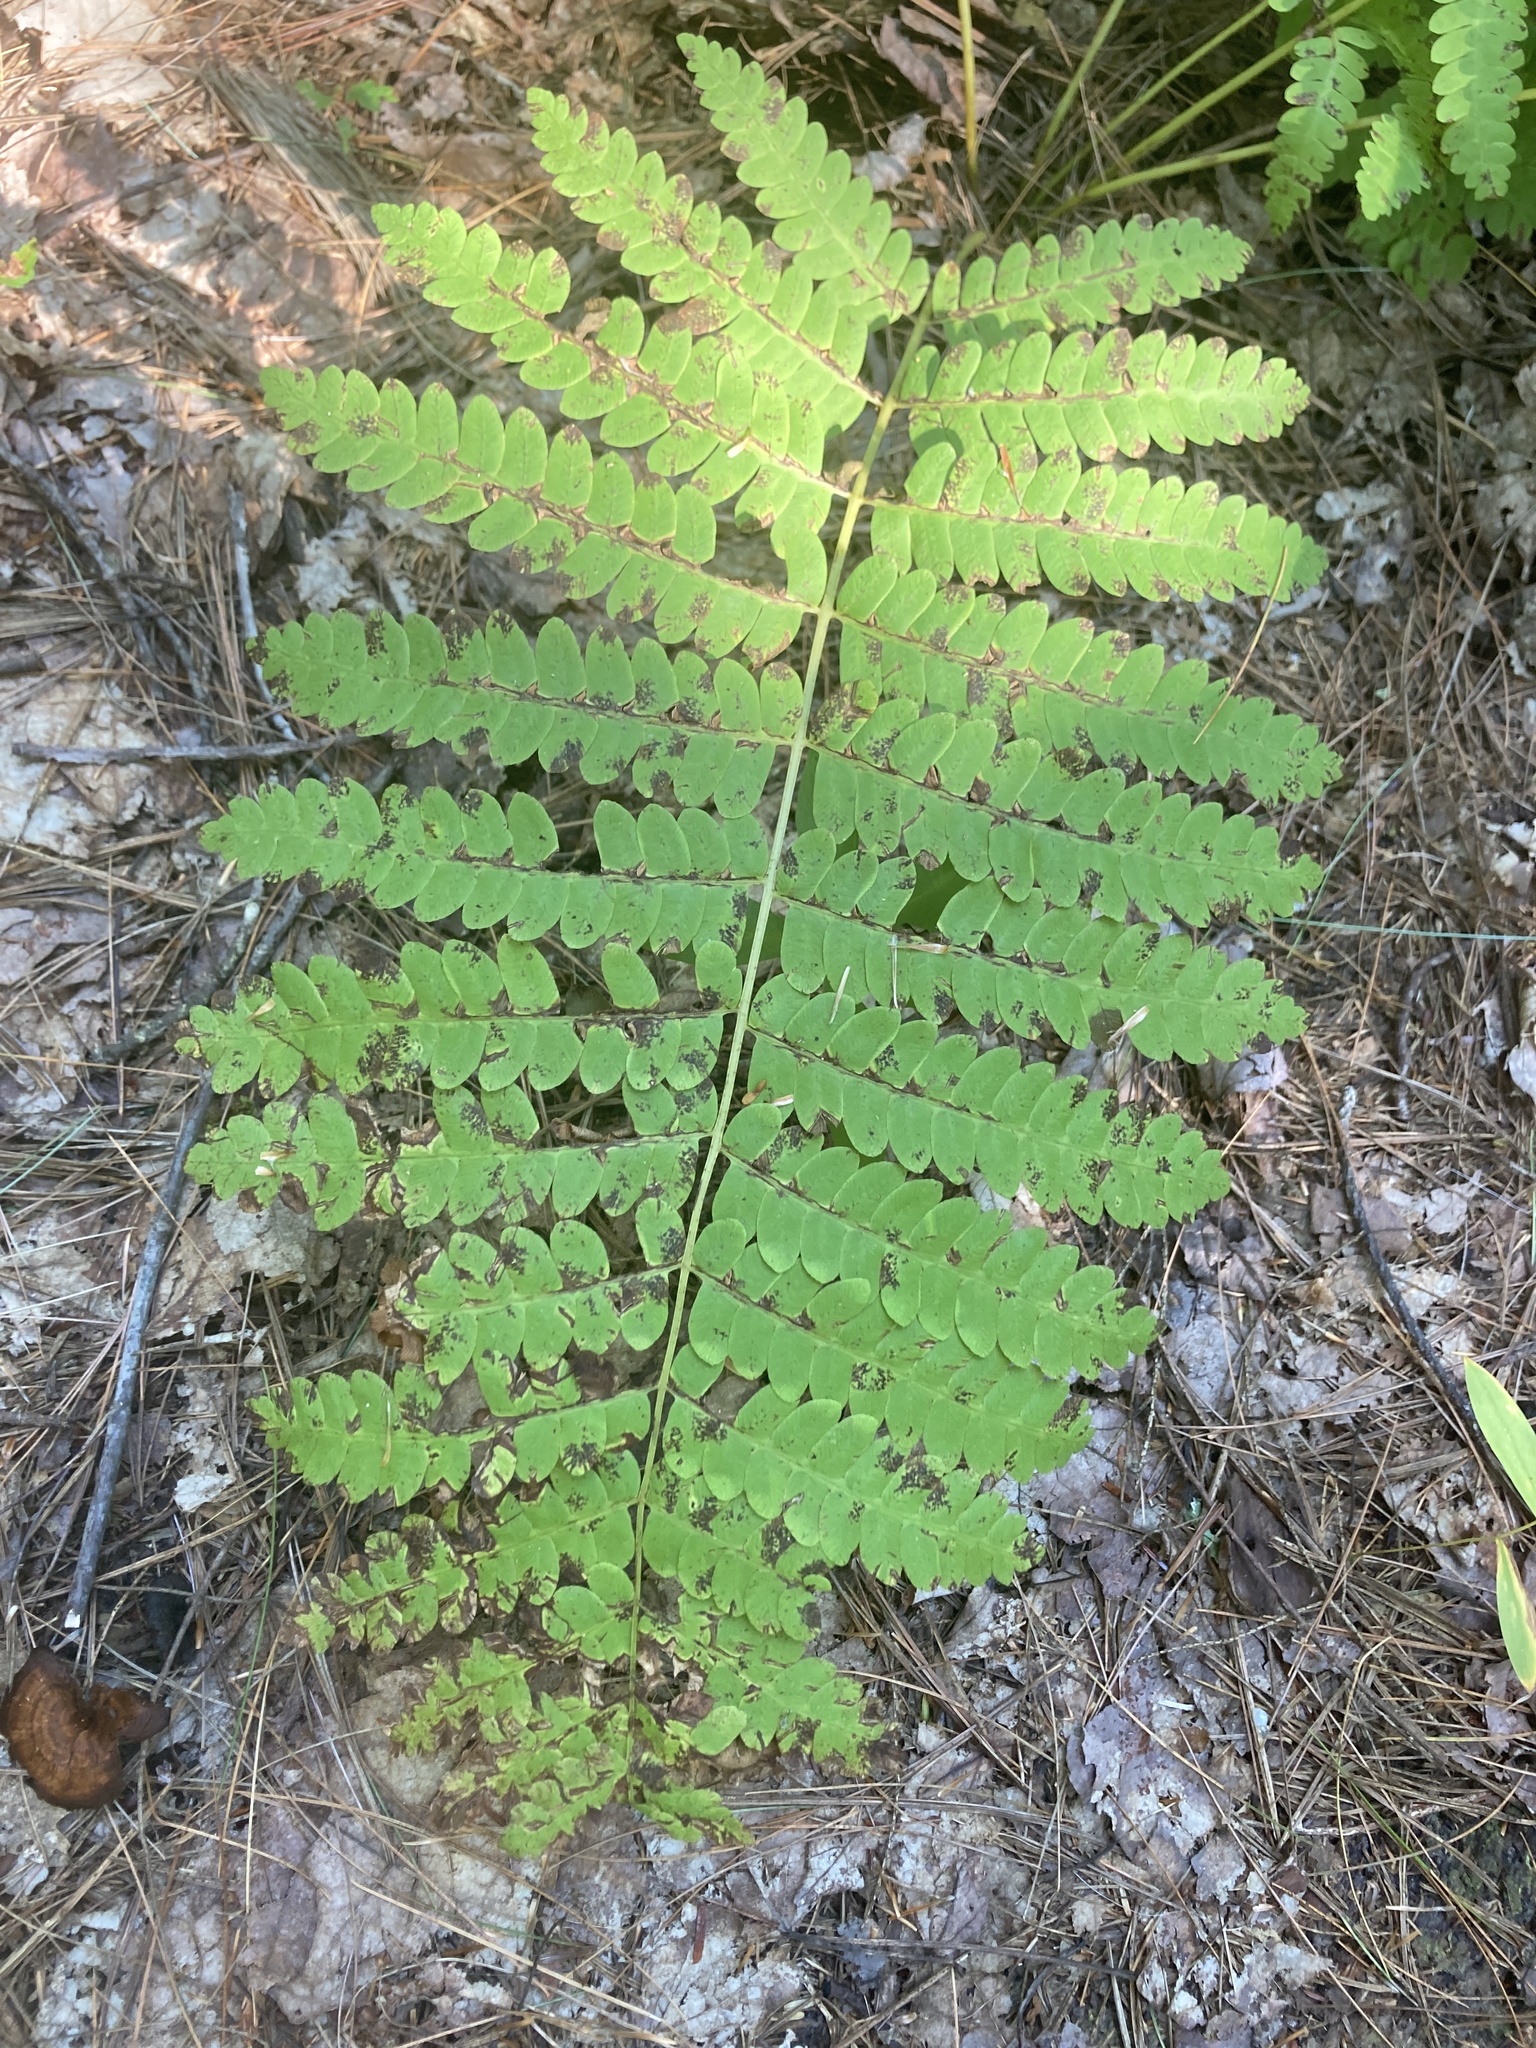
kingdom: Plantae
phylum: Tracheophyta
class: Polypodiopsida
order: Osmundales
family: Osmundaceae
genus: Claytosmunda
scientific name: Claytosmunda claytoniana
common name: Clayton's fern
